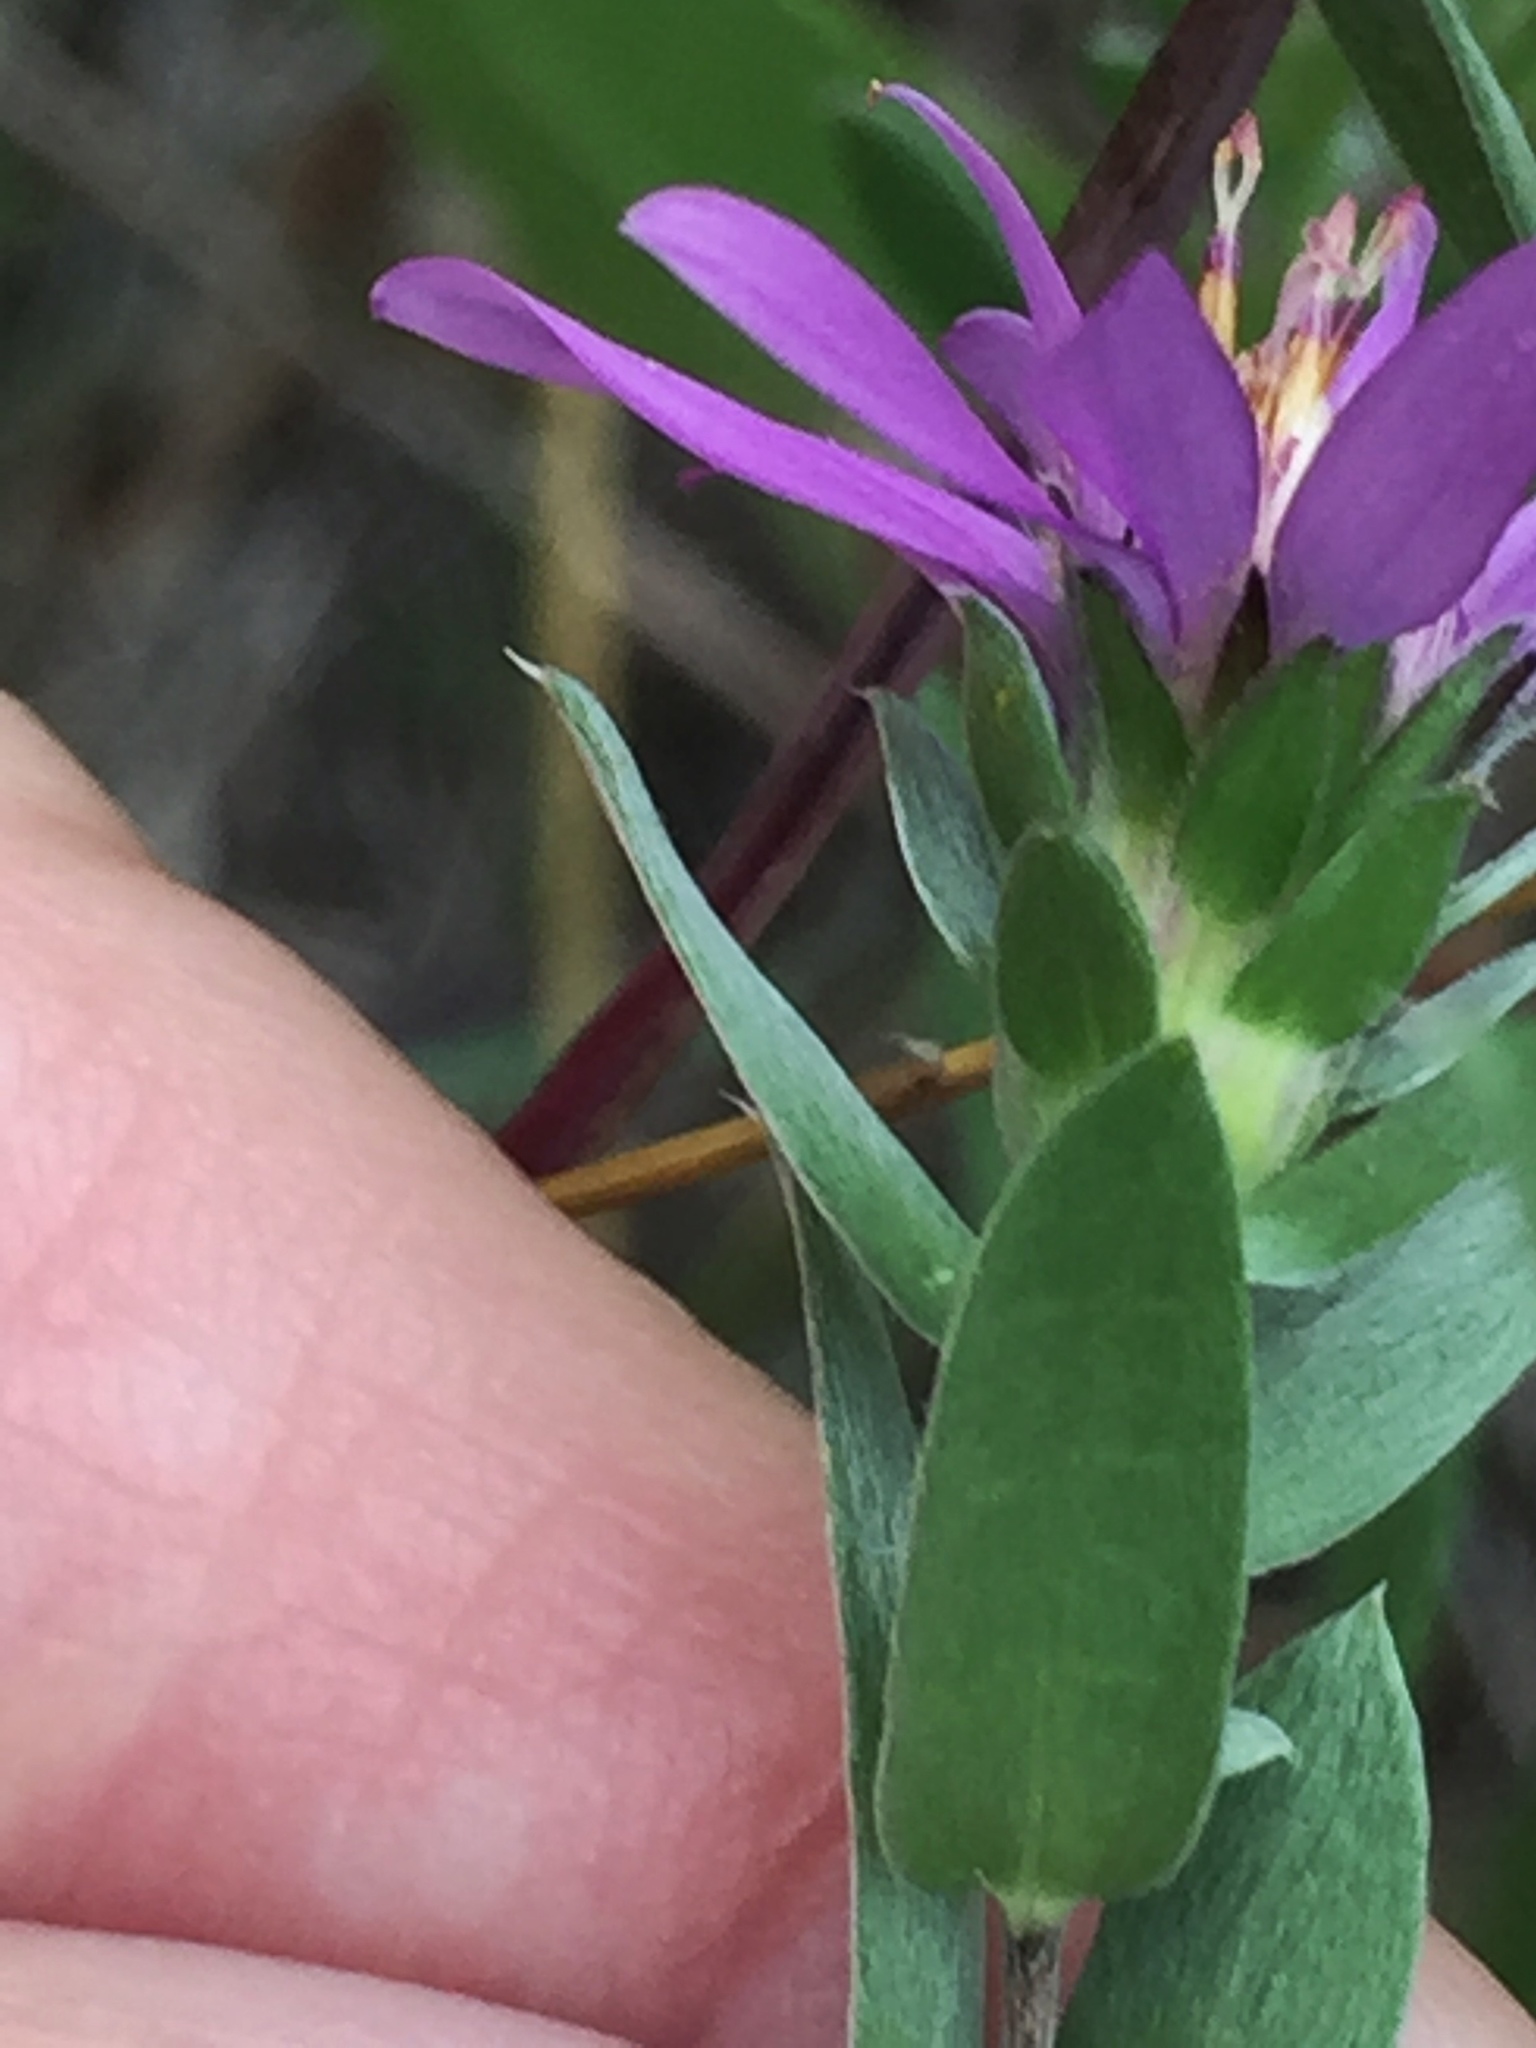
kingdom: Plantae
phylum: Tracheophyta
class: Magnoliopsida
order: Asterales
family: Asteraceae
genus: Symphyotrichum
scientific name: Symphyotrichum sericeum
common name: Silky aster
